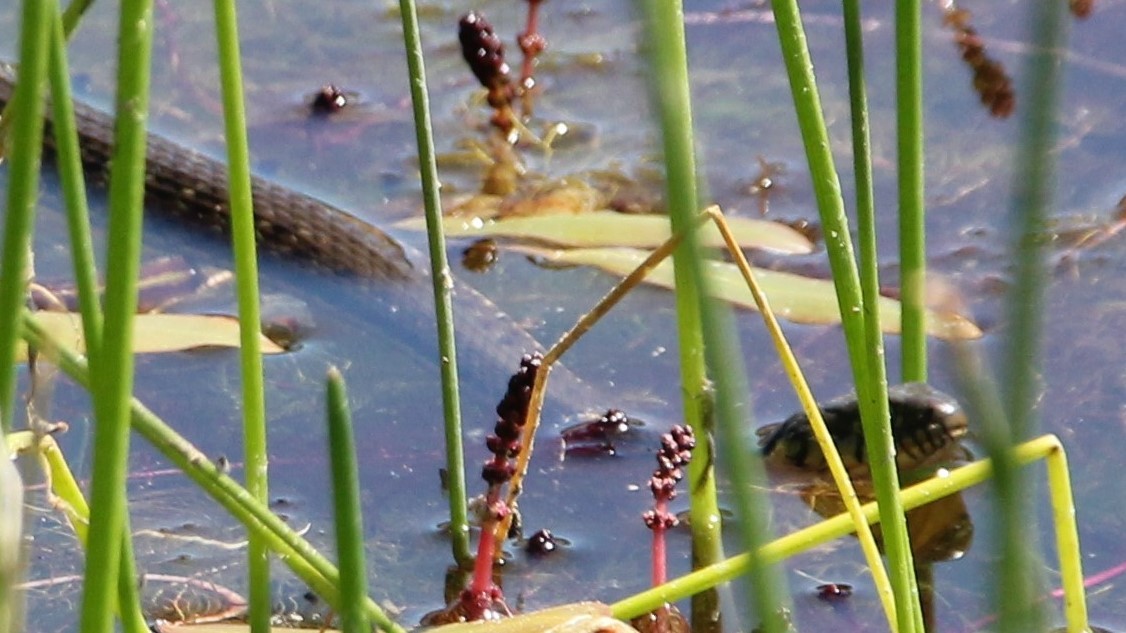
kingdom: Animalia
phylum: Chordata
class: Squamata
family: Colubridae
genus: Thamnophis
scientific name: Thamnophis hammondii
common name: Two-striped garter snake
